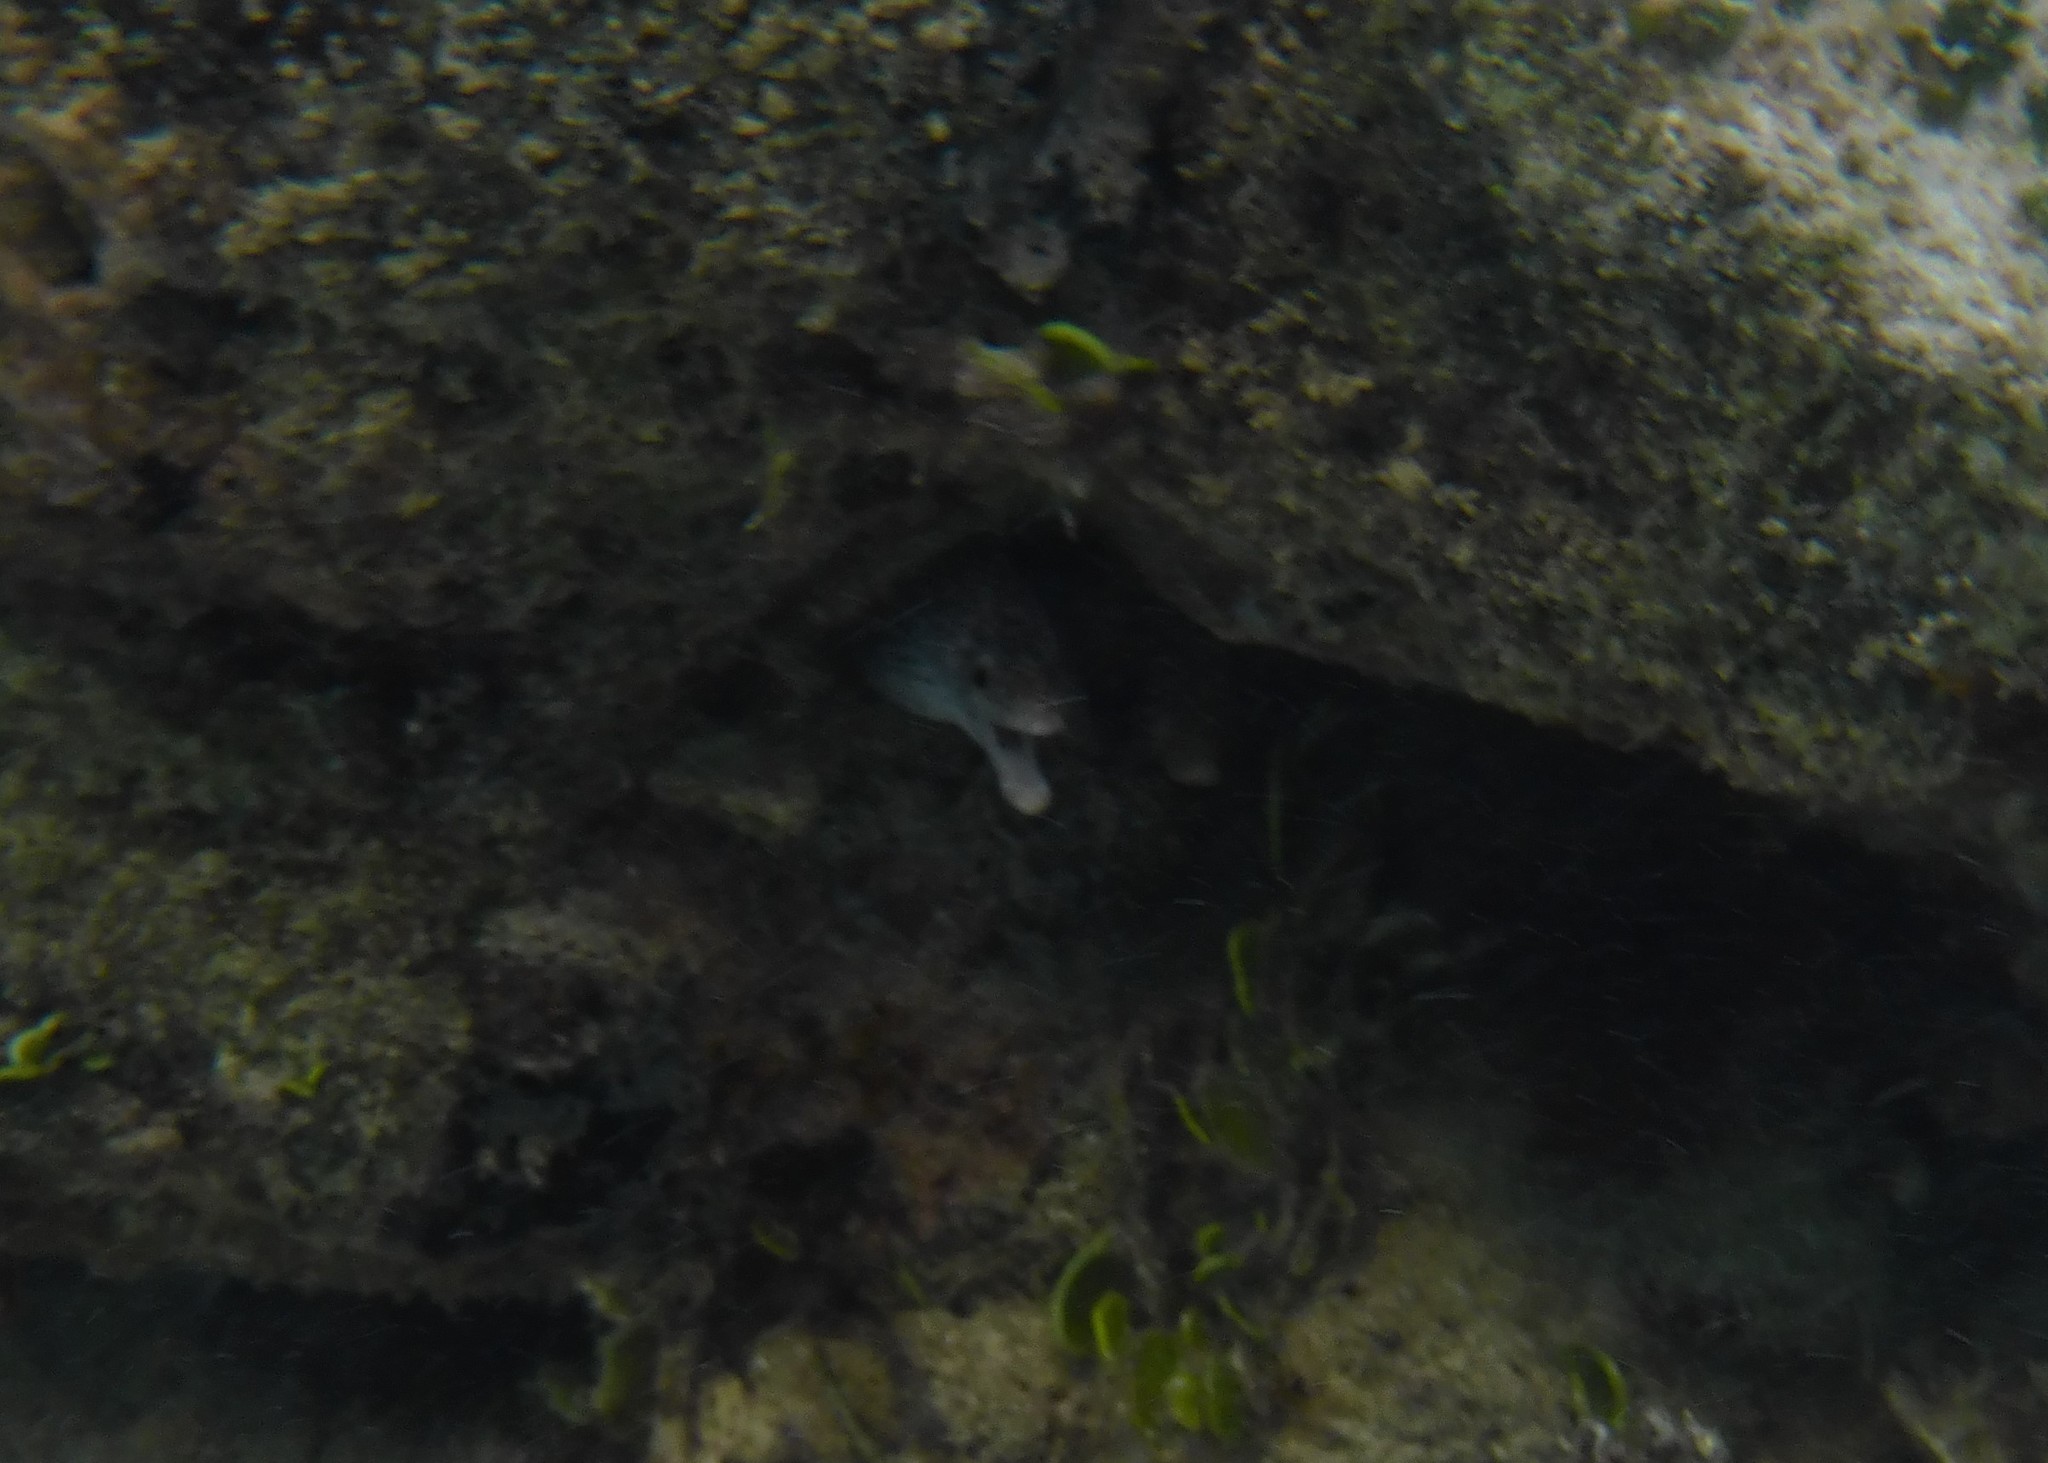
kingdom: Animalia
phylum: Chordata
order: Anguilliformes
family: Muraenidae
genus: Gymnothorax
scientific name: Gymnothorax moringa
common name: Spotted moray
